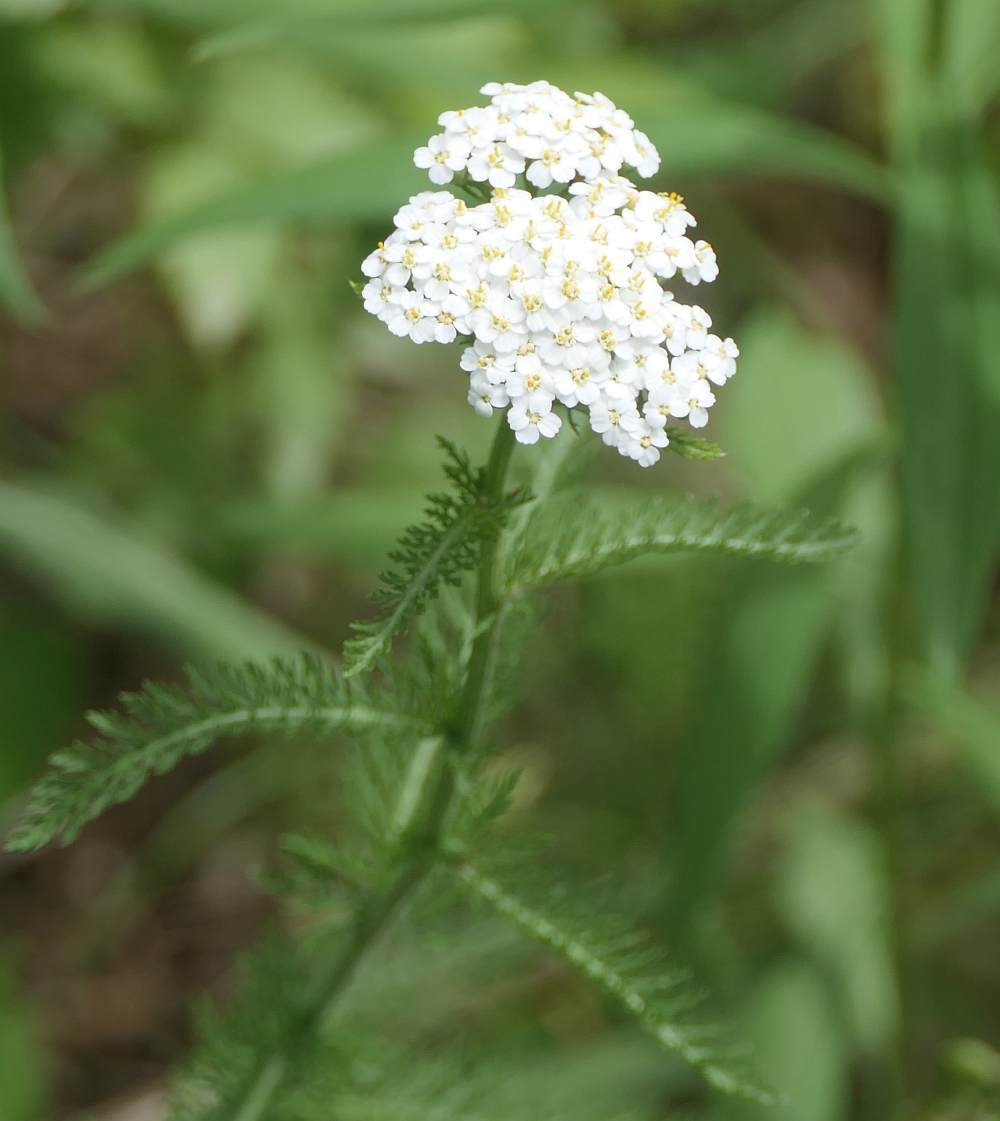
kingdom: Plantae
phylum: Tracheophyta
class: Magnoliopsida
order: Asterales
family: Asteraceae
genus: Achillea
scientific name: Achillea millefolium
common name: Yarrow
